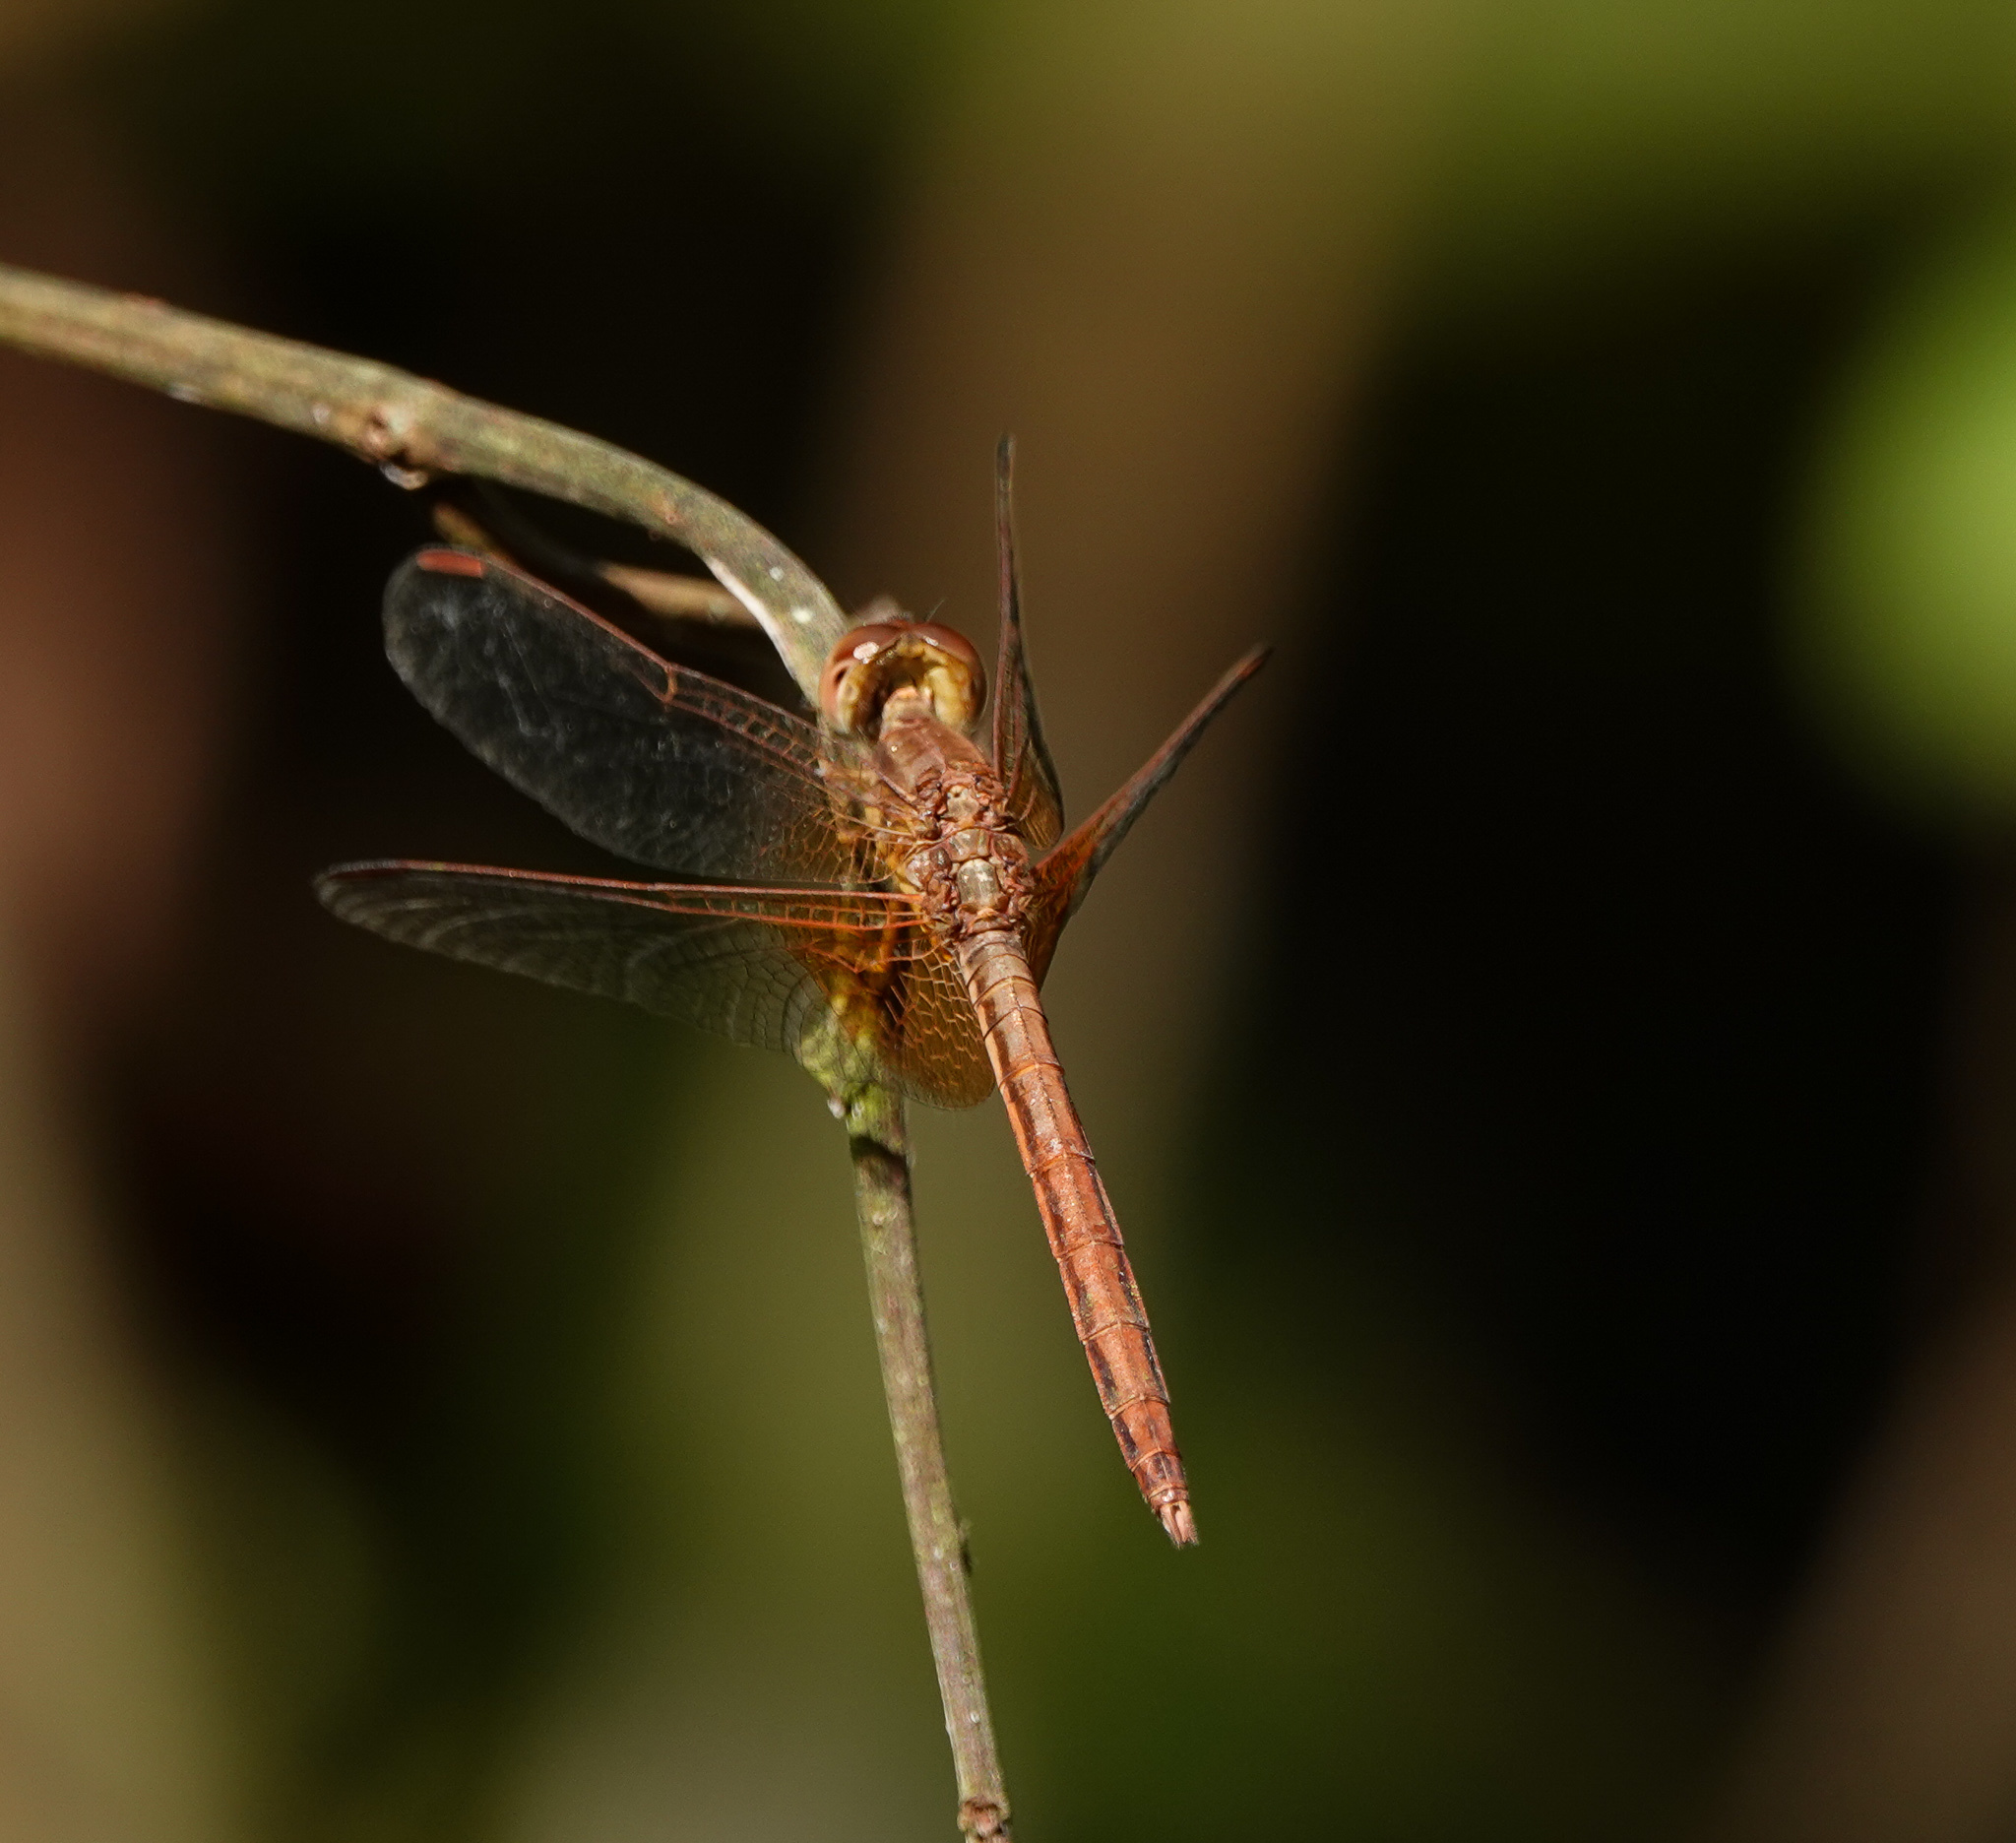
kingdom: Animalia
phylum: Arthropoda
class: Insecta
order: Odonata
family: Libellulidae
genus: Neurothemis
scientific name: Neurothemis intermedia
